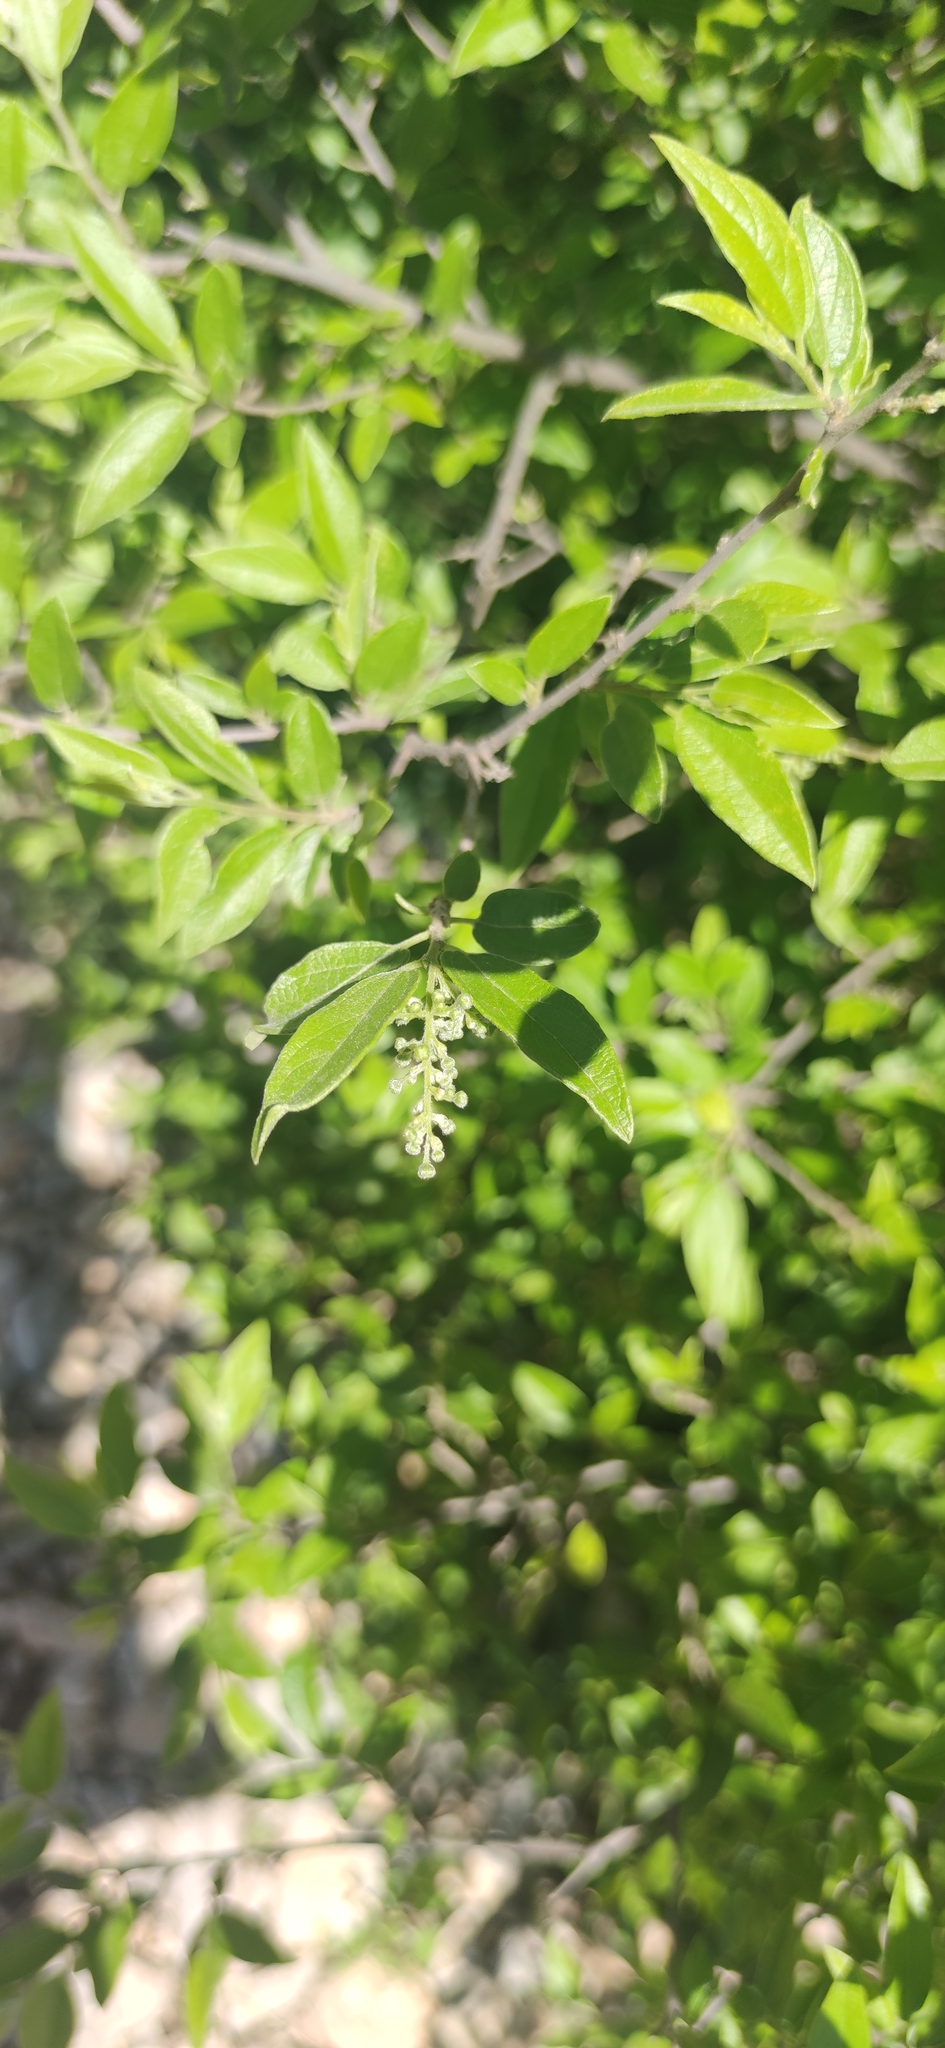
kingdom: Plantae
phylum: Tracheophyta
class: Magnoliopsida
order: Malpighiales
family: Salicaceae
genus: Neopringlea
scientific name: Neopringlea integrifolia
